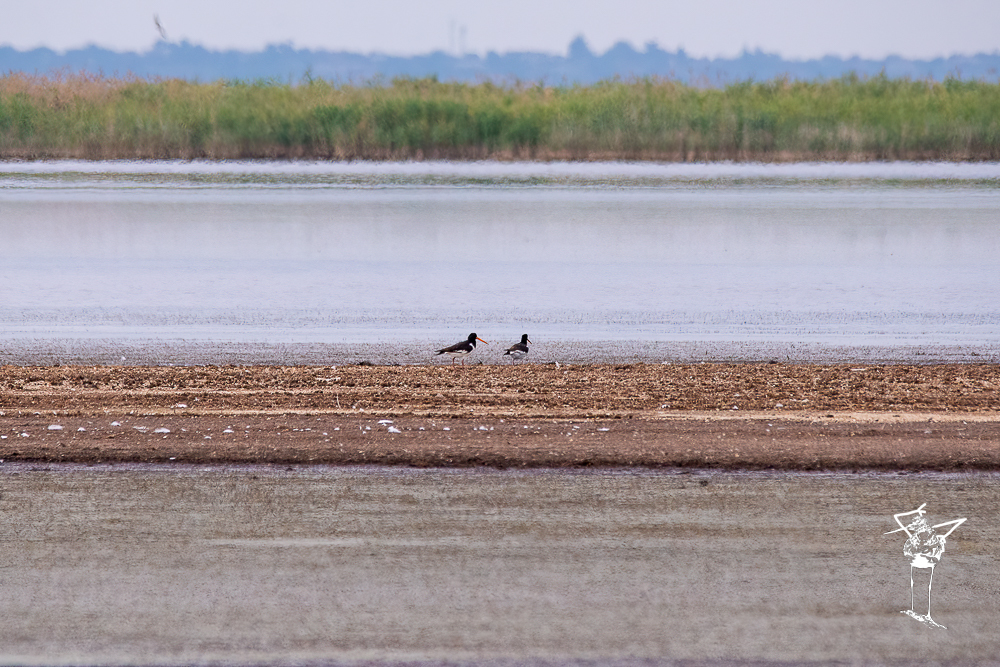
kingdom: Animalia
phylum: Chordata
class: Aves
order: Charadriiformes
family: Haematopodidae
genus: Haematopus
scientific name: Haematopus ostralegus
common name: Eurasian oystercatcher
